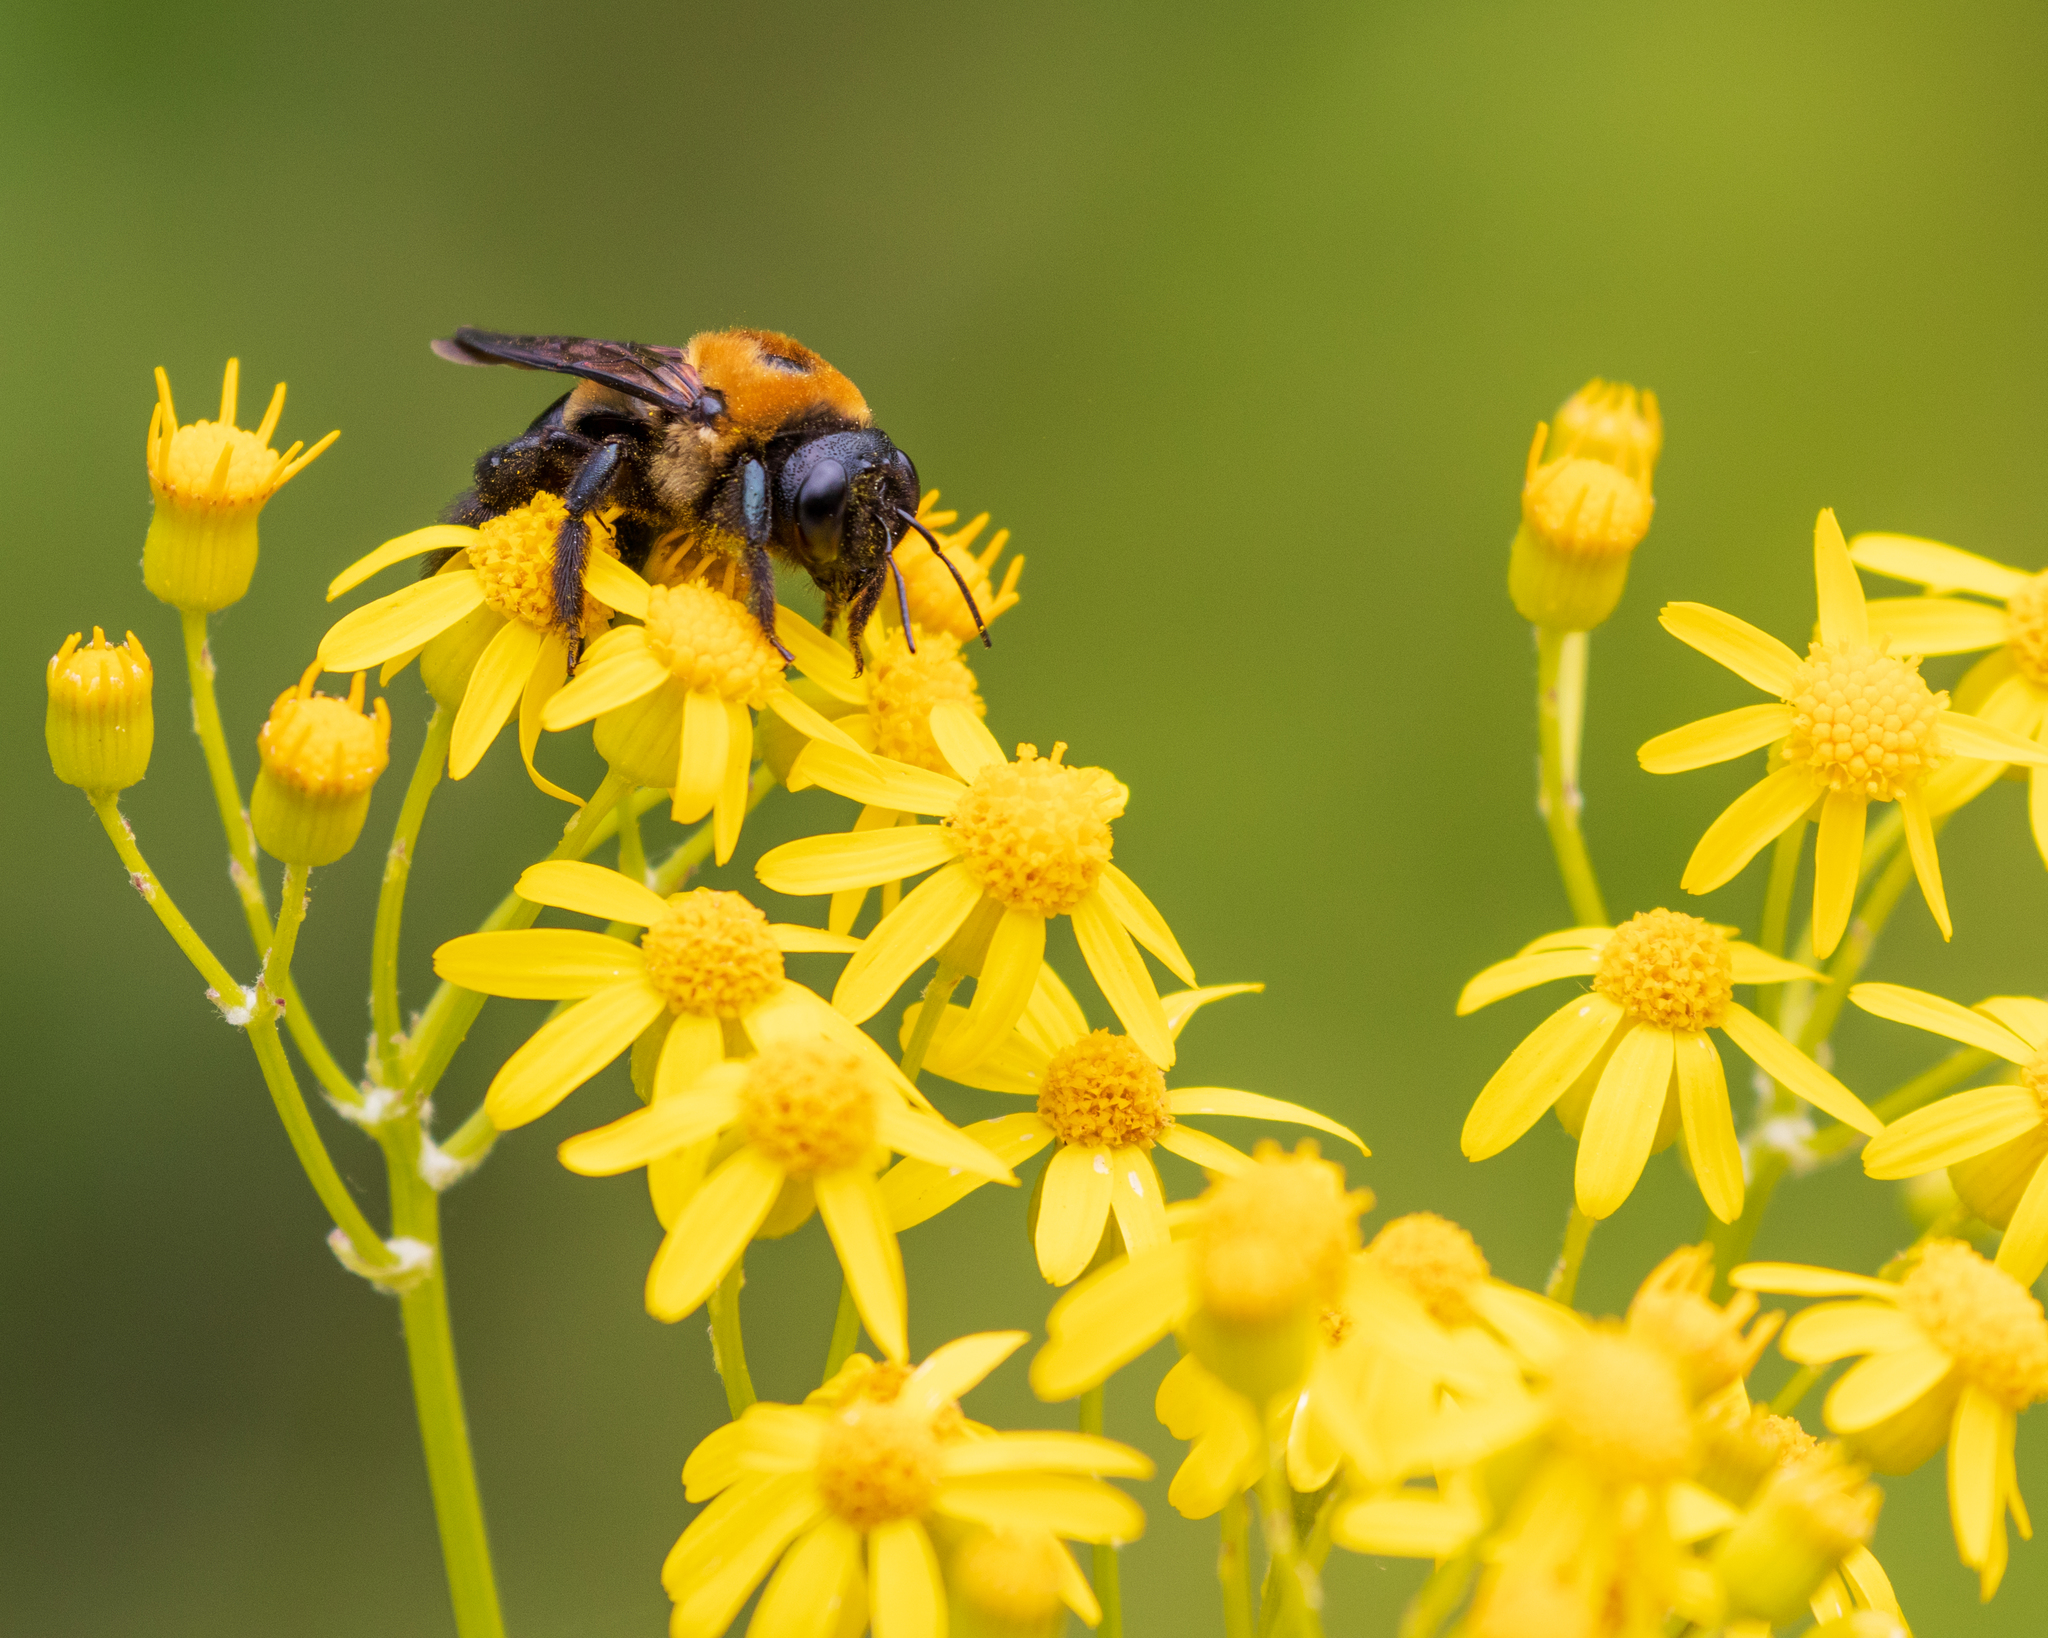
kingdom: Animalia
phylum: Arthropoda
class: Insecta
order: Hymenoptera
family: Apidae
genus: Xylocopa
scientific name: Xylocopa virginica
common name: Carpenter bee
